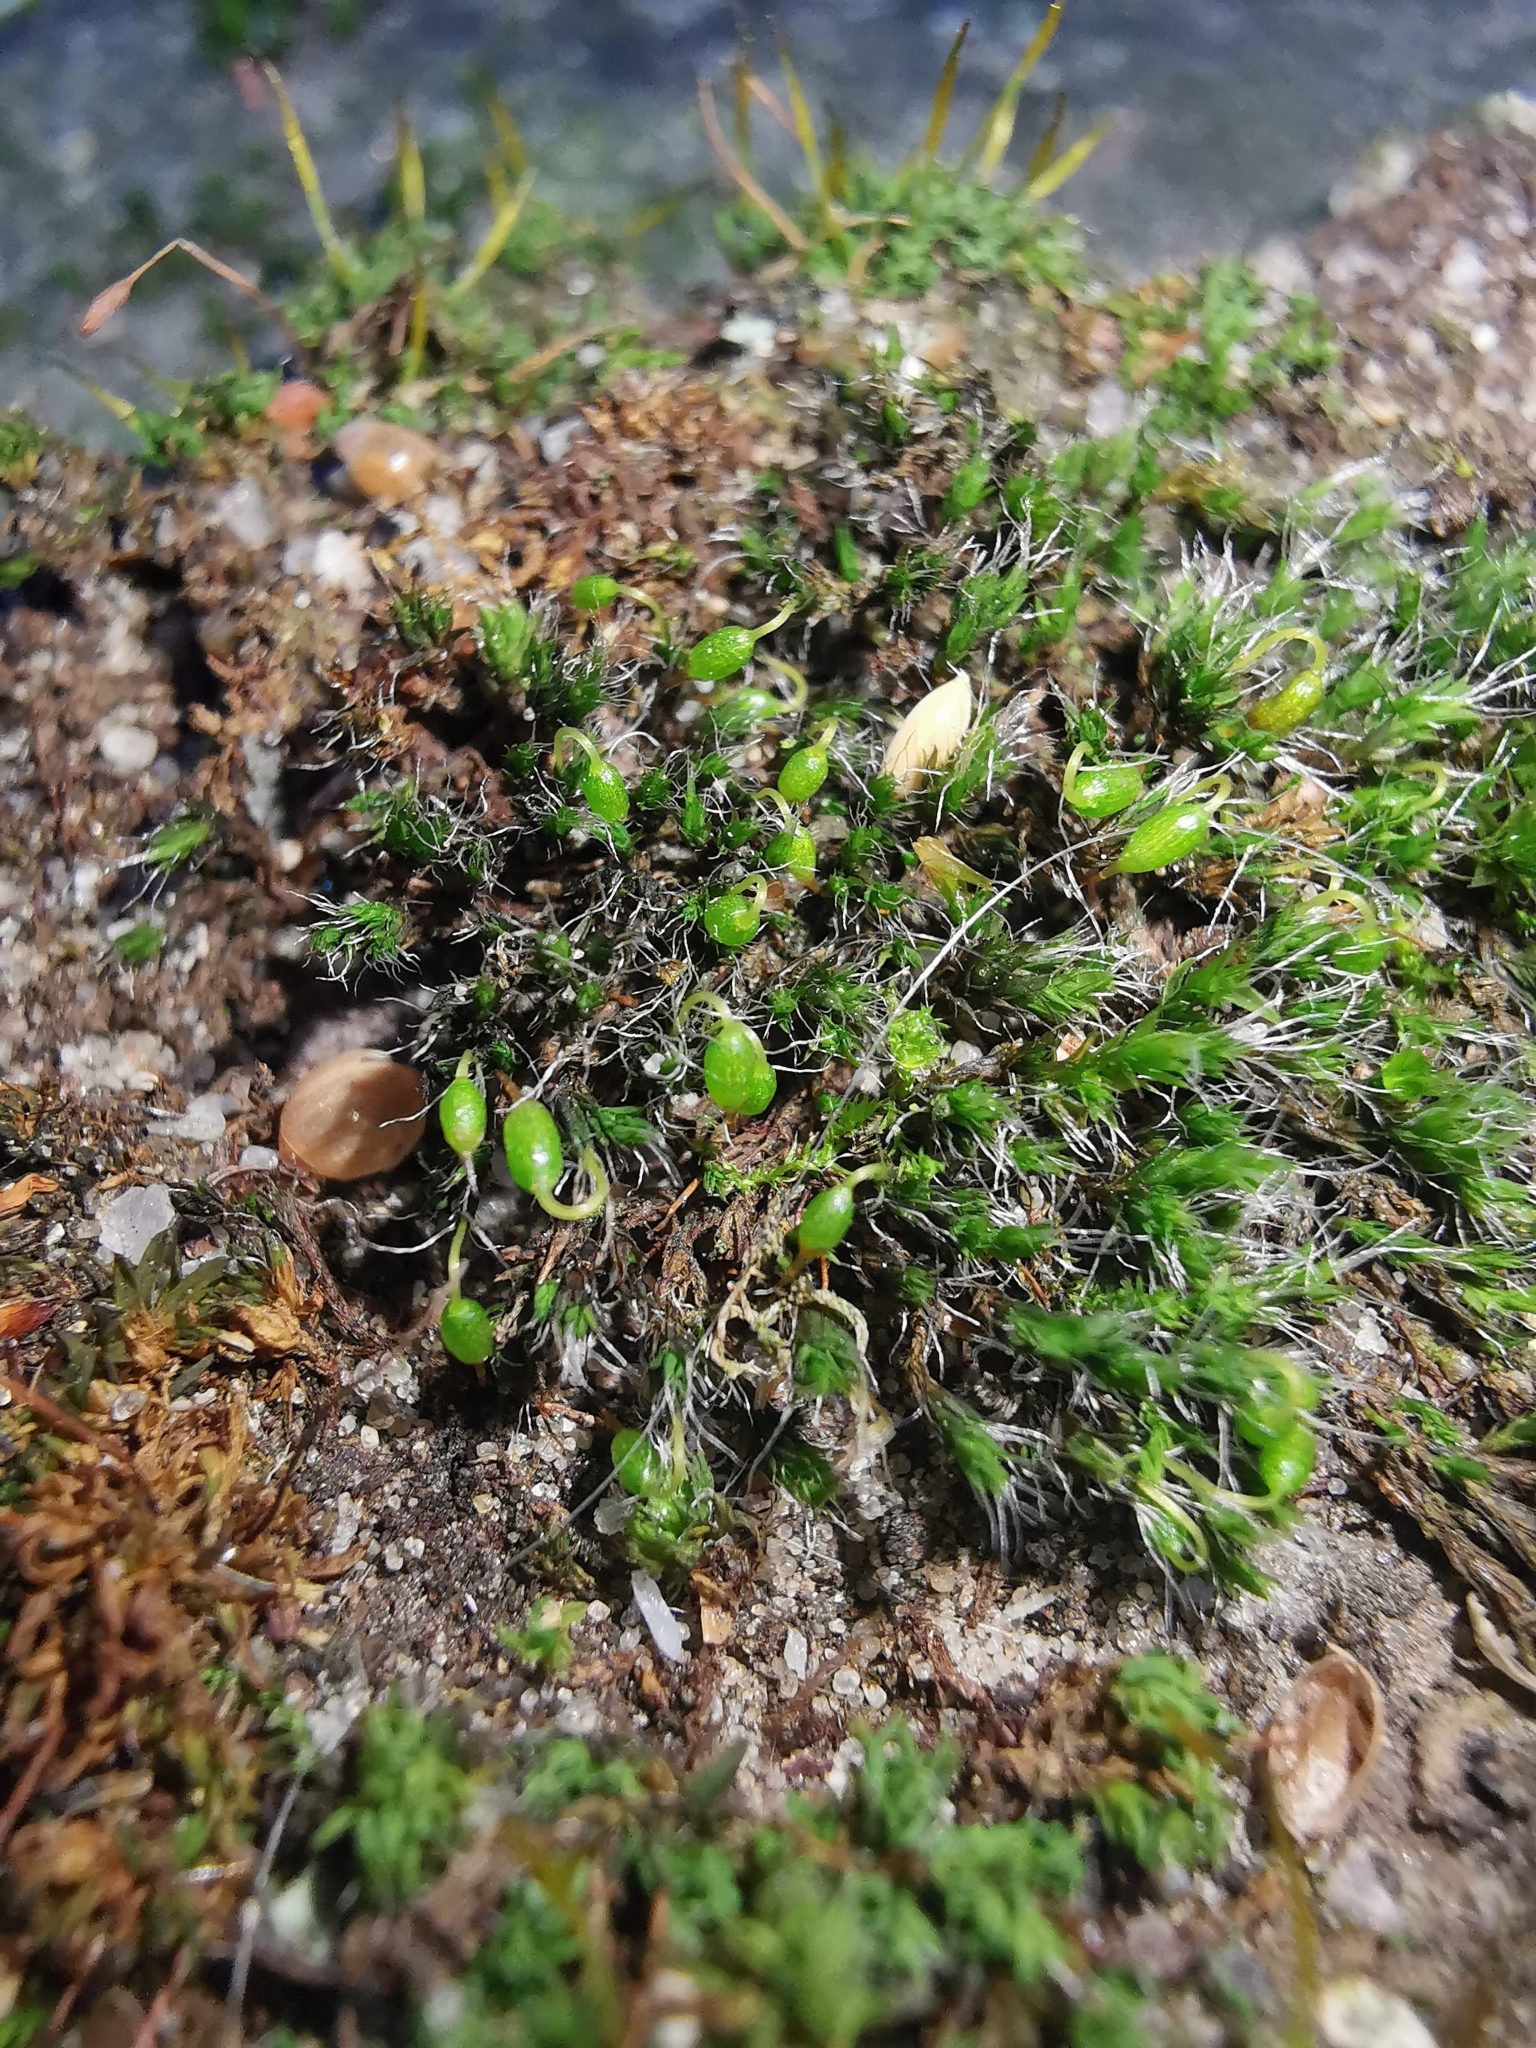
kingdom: Plantae
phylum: Bryophyta
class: Bryopsida
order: Grimmiales
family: Grimmiaceae
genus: Grimmia
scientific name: Grimmia pulvinata
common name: Grey-cushioned grimmia
